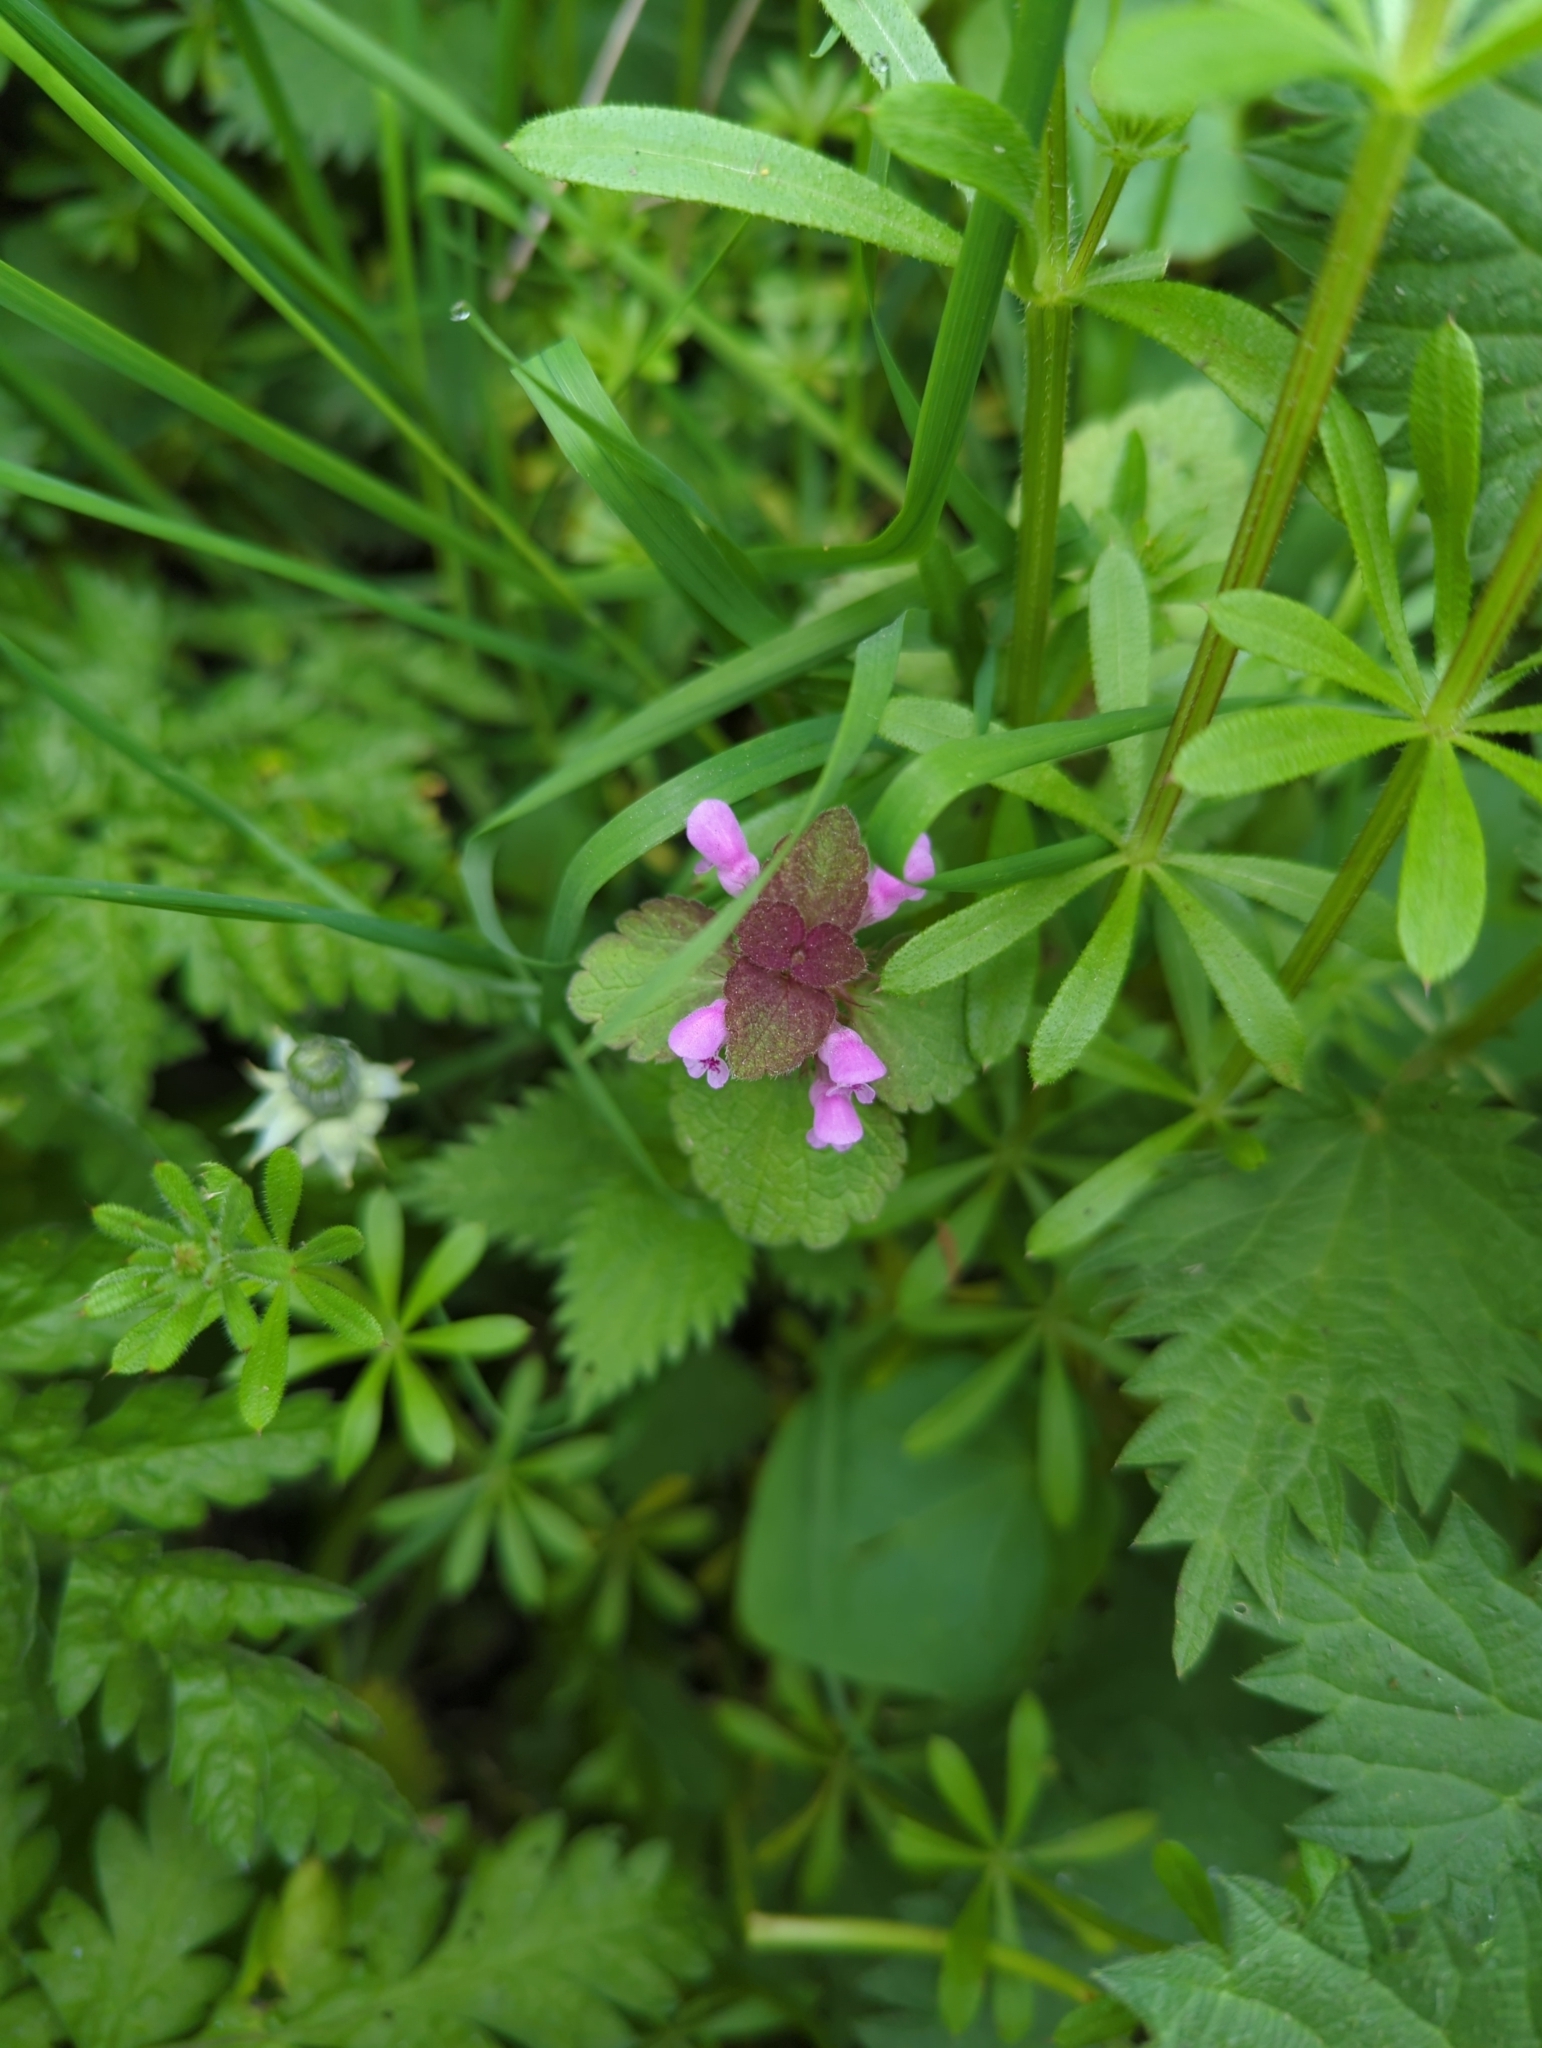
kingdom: Plantae
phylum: Tracheophyta
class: Magnoliopsida
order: Lamiales
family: Lamiaceae
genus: Lamium
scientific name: Lamium purpureum
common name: Red dead-nettle
